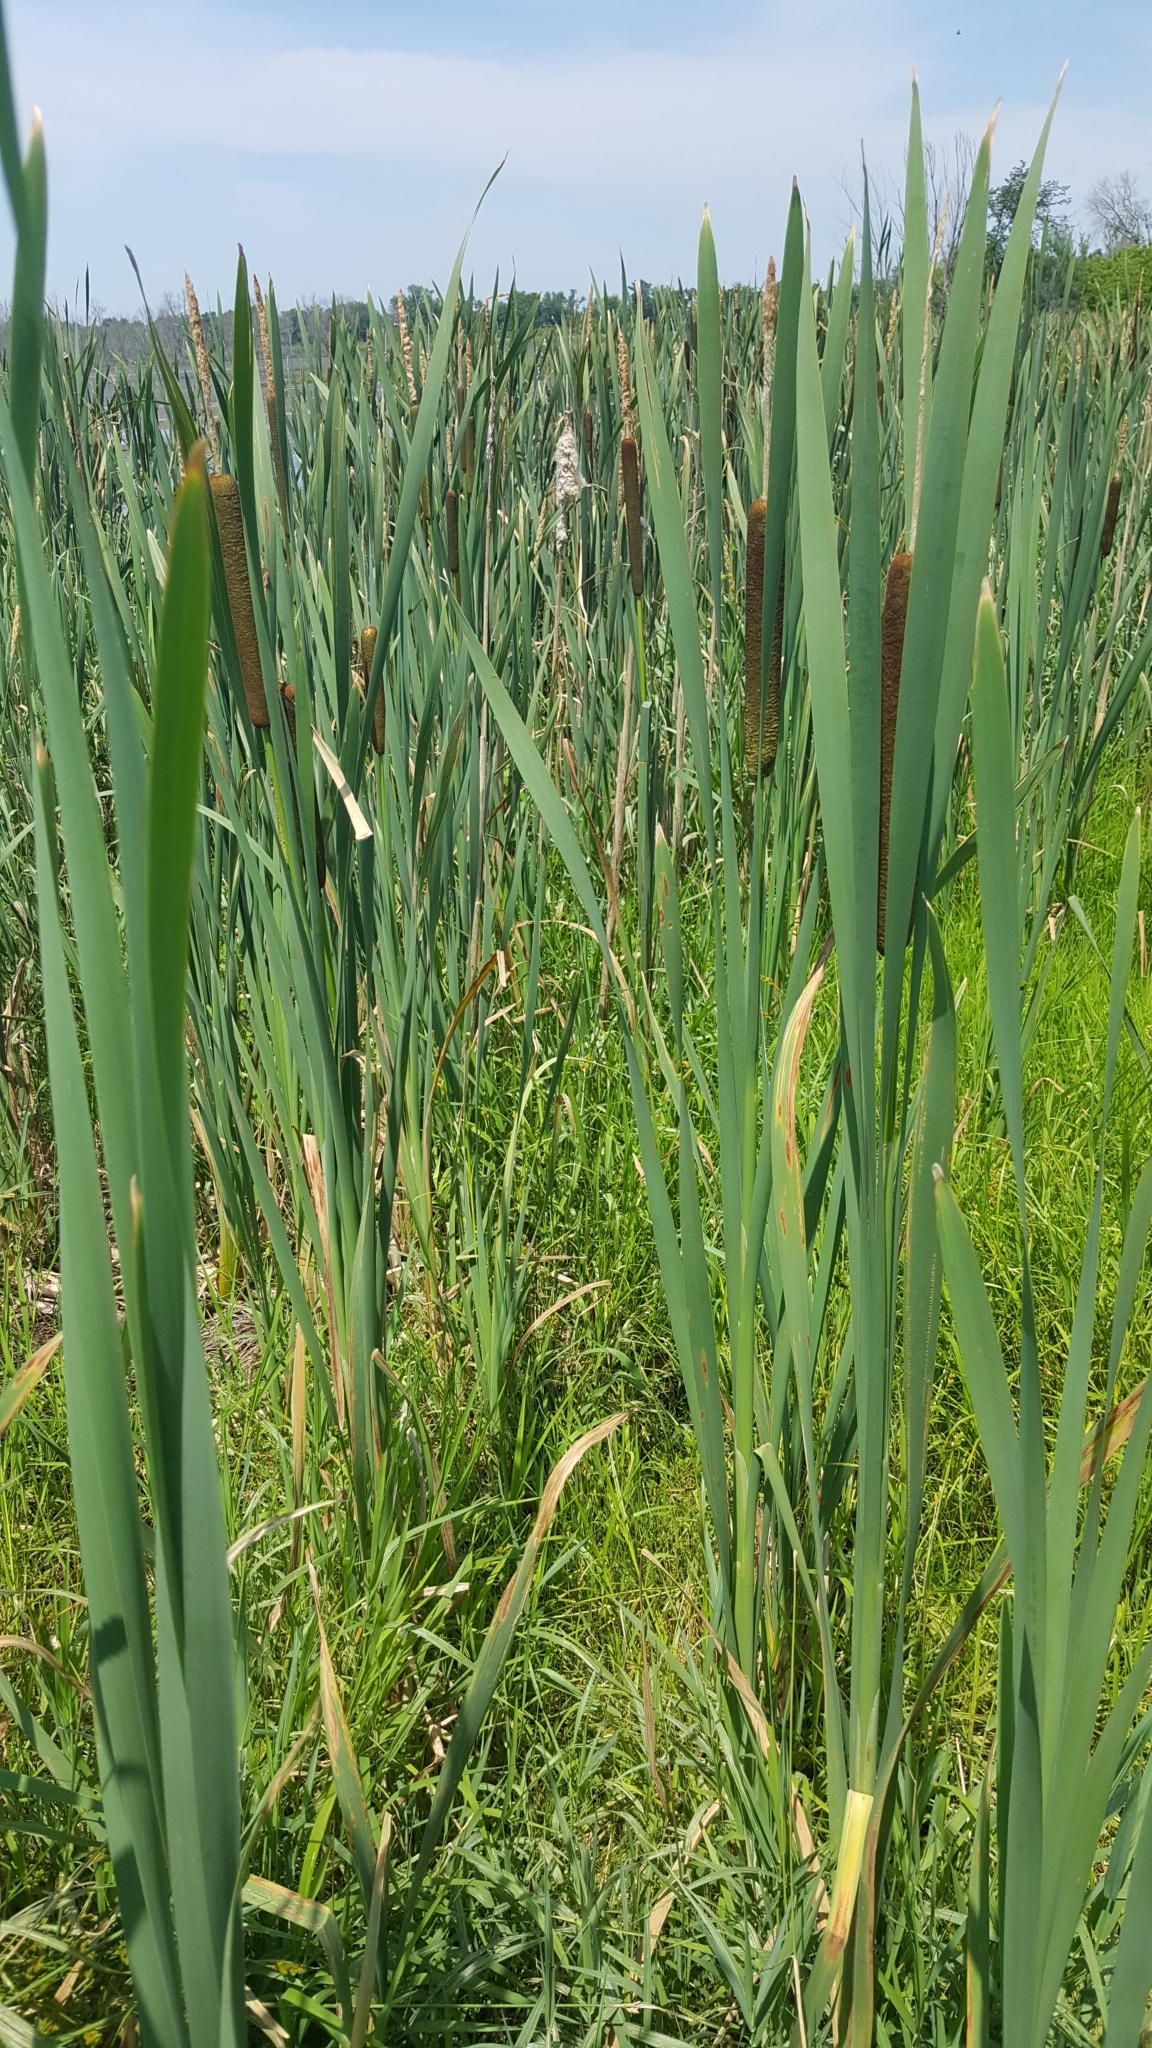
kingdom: Plantae
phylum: Tracheophyta
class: Liliopsida
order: Poales
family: Typhaceae
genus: Typha
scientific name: Typha latifolia
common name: Broadleaf cattail
